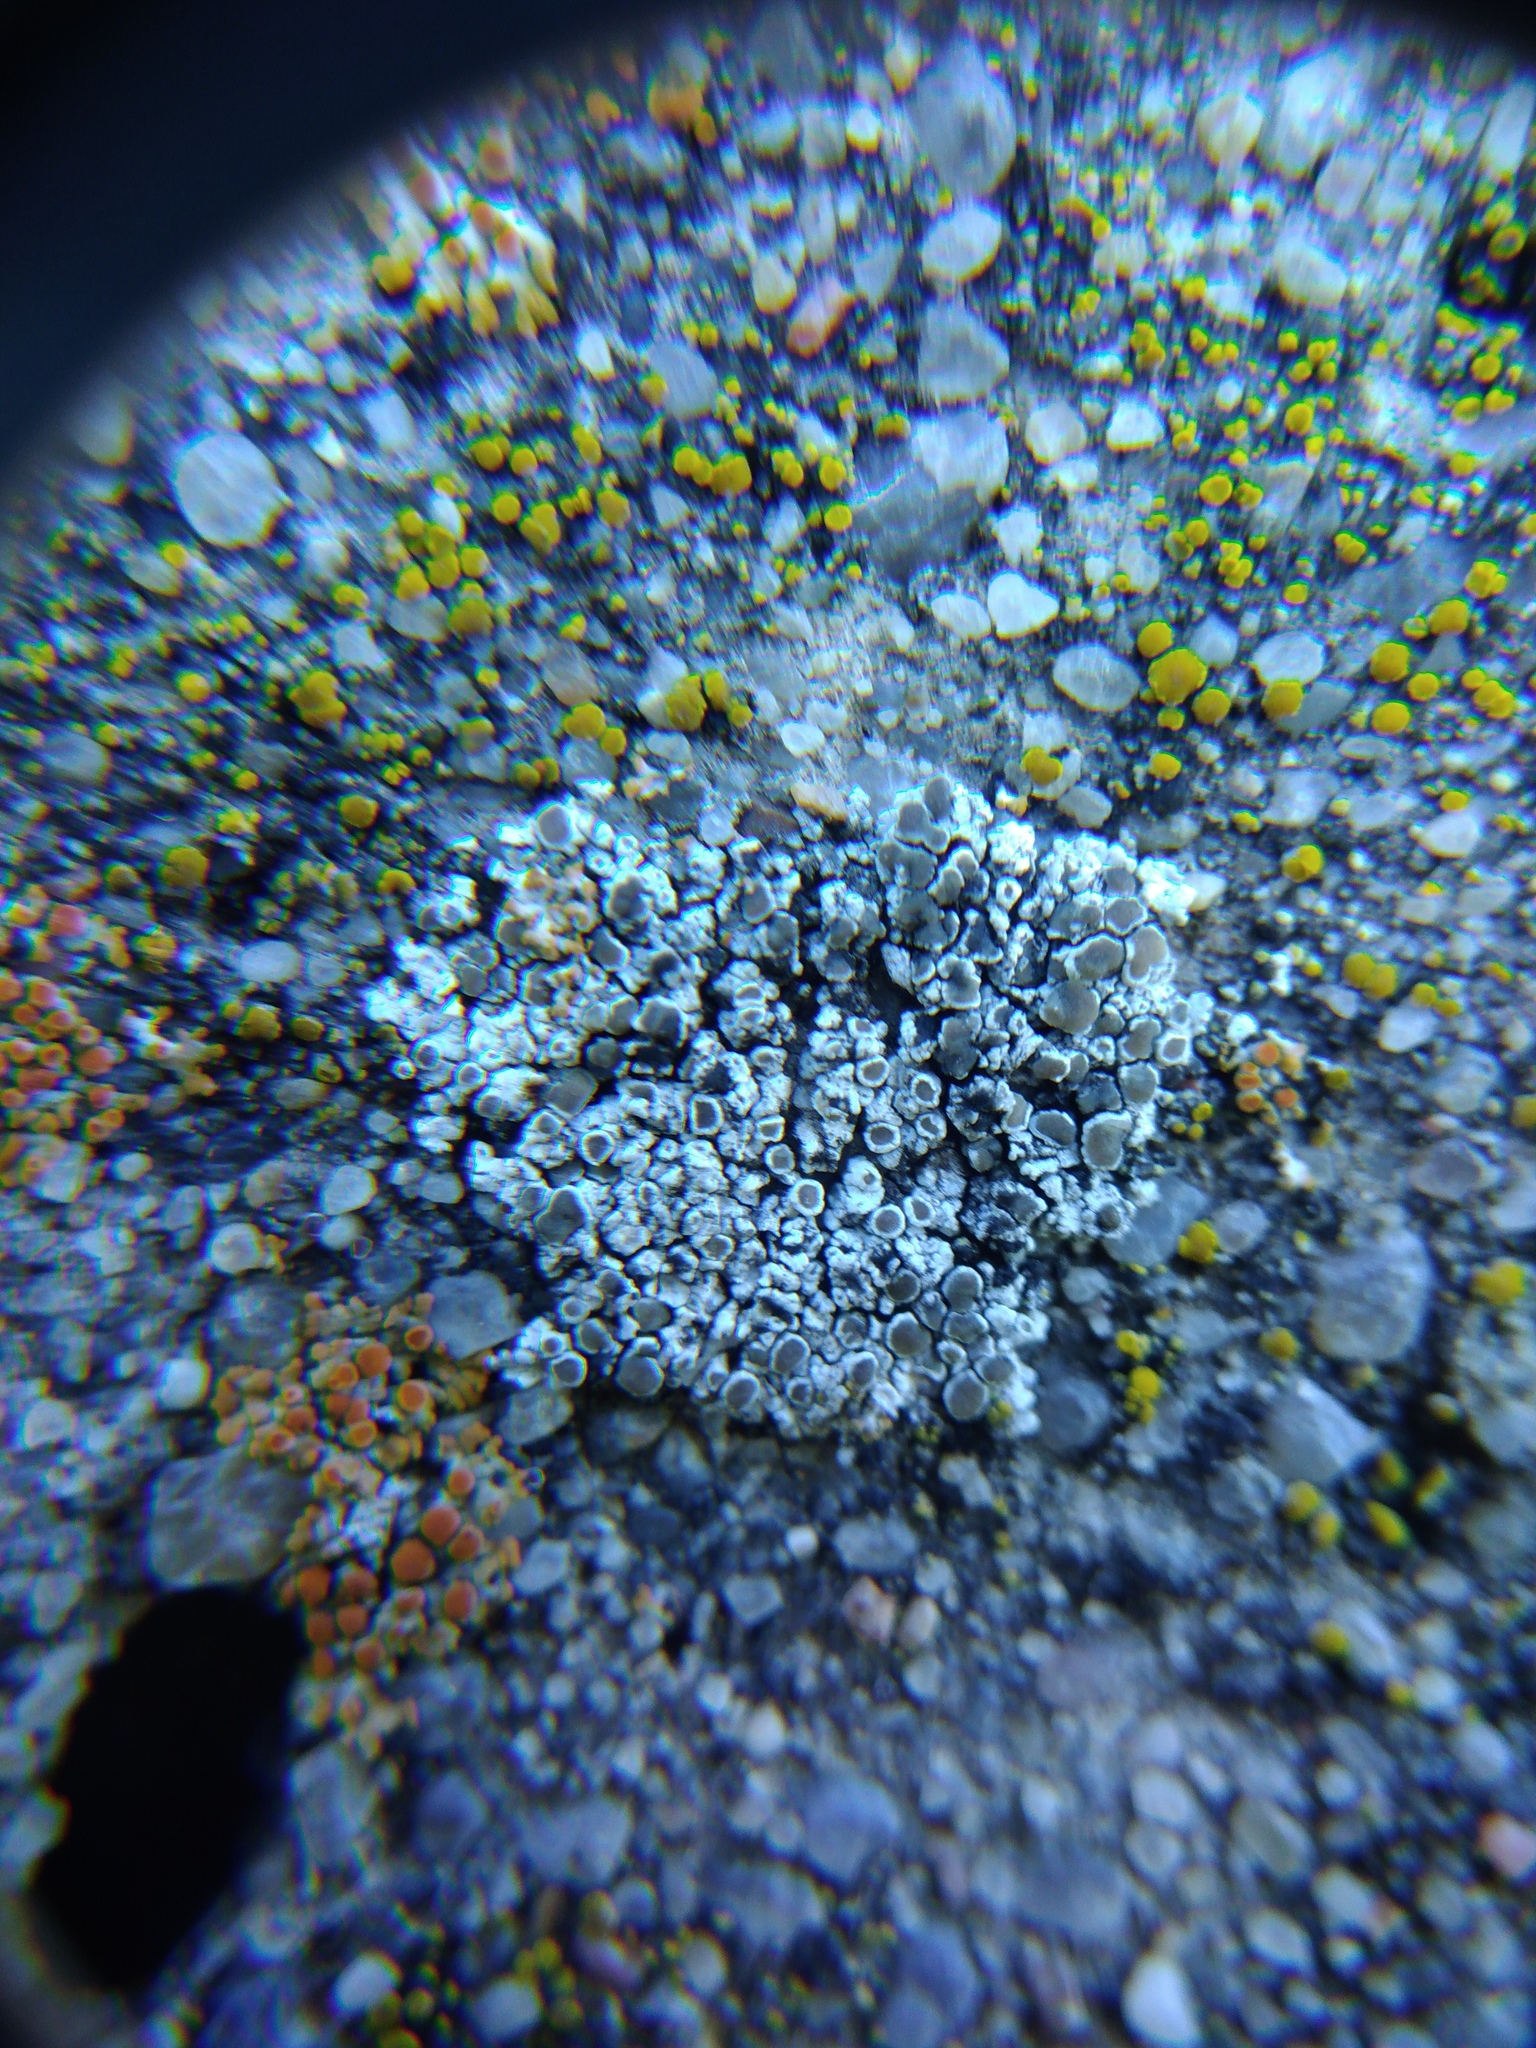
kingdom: Fungi
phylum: Ascomycota
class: Lecanoromycetes
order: Lecanorales
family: Lecanoraceae
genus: Polyozosia
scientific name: Polyozosia albescens
